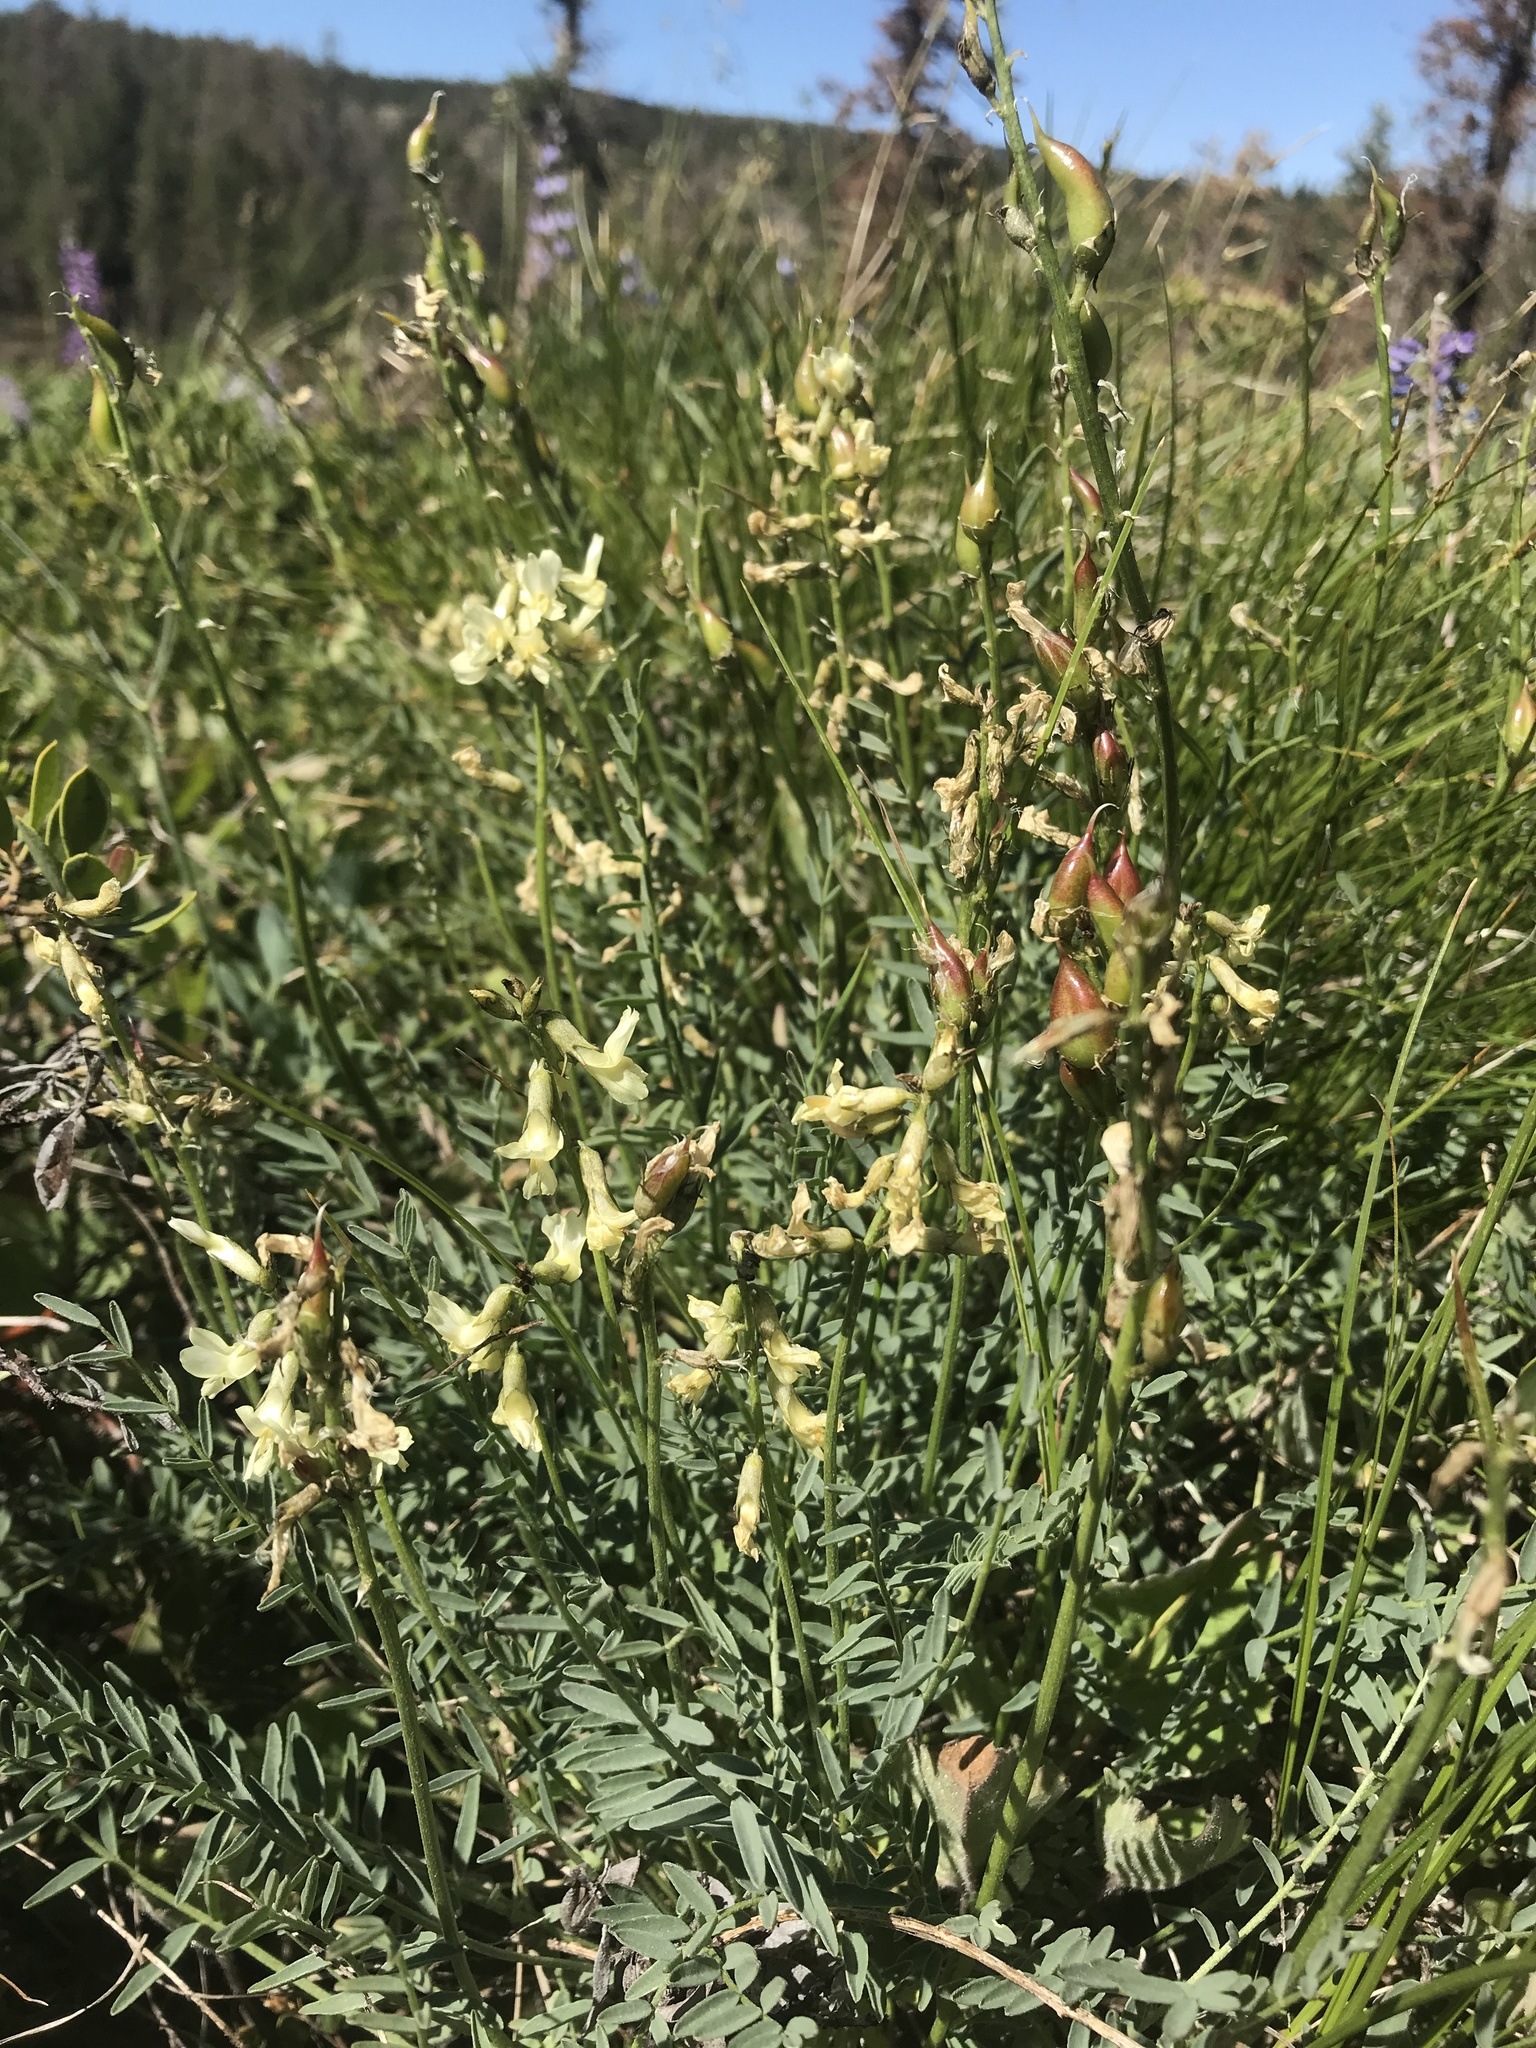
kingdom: Plantae
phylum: Tracheophyta
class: Magnoliopsida
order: Fabales
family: Fabaceae
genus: Astragalus
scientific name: Astragalus reventiformis
